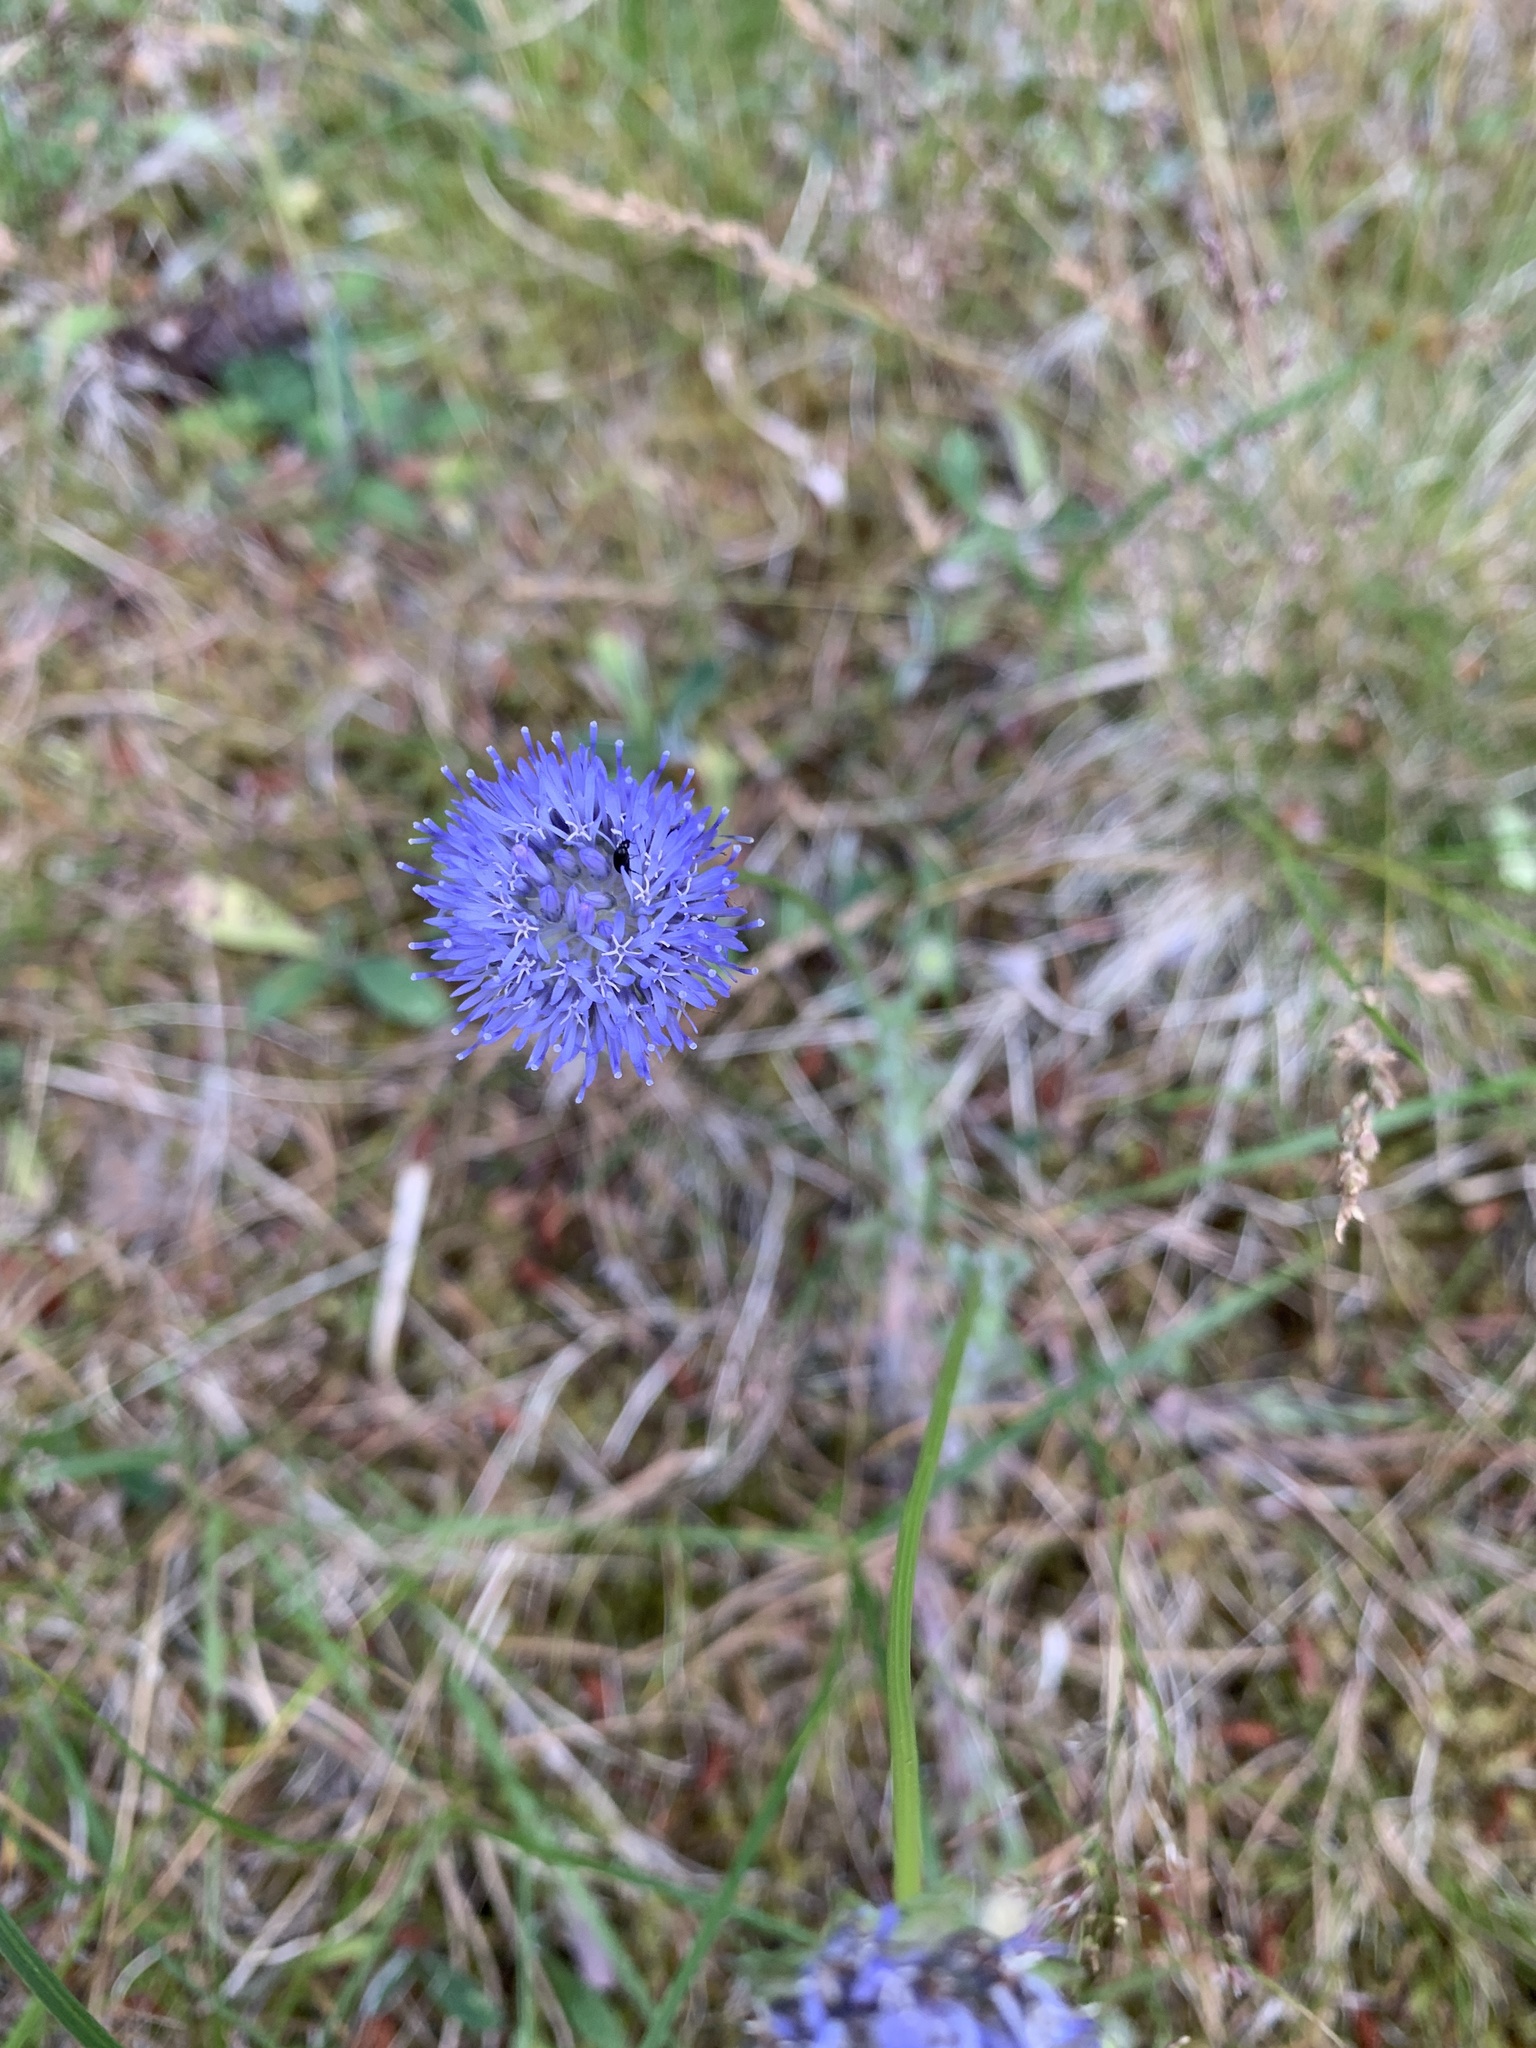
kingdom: Plantae
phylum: Tracheophyta
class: Magnoliopsida
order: Asterales
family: Campanulaceae
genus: Jasione
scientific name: Jasione montana
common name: Sheep's-bit
